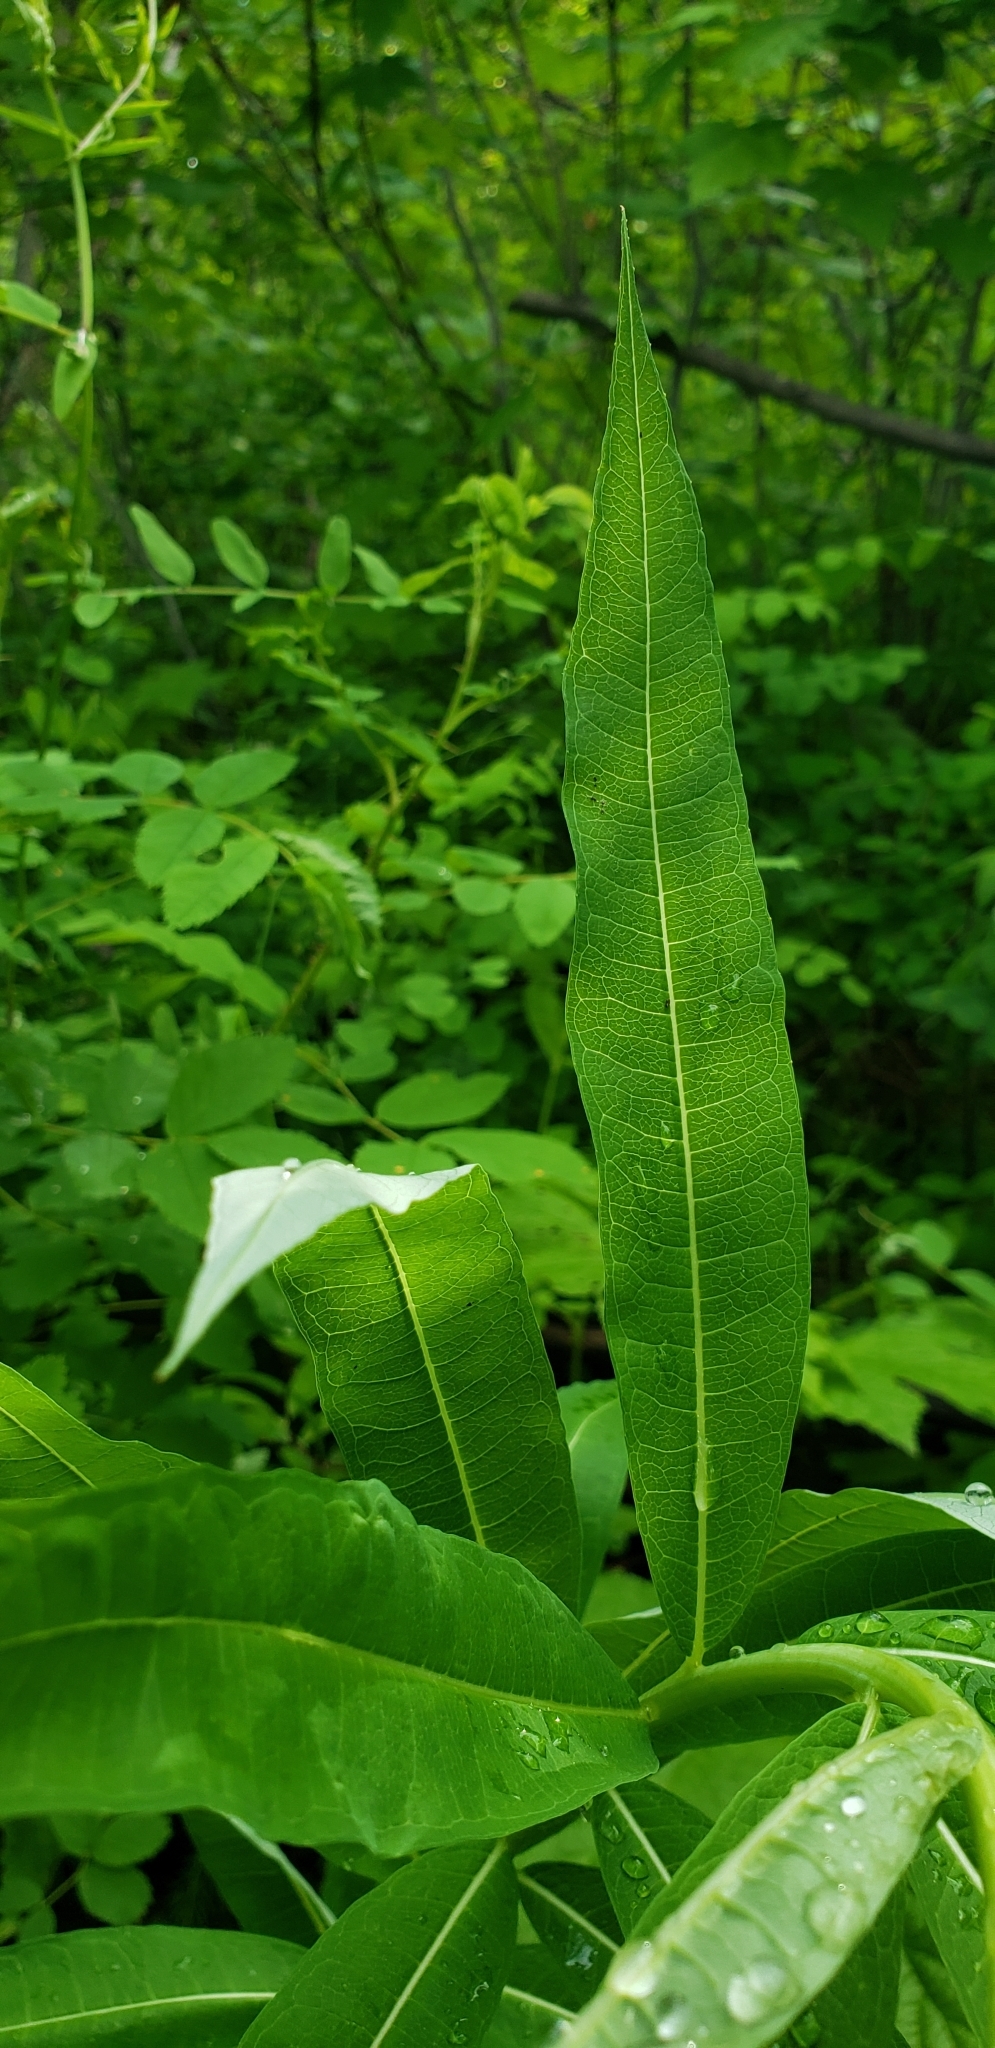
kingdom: Plantae
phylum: Tracheophyta
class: Magnoliopsida
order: Myrtales
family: Onagraceae
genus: Chamaenerion
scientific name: Chamaenerion angustifolium
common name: Fireweed
